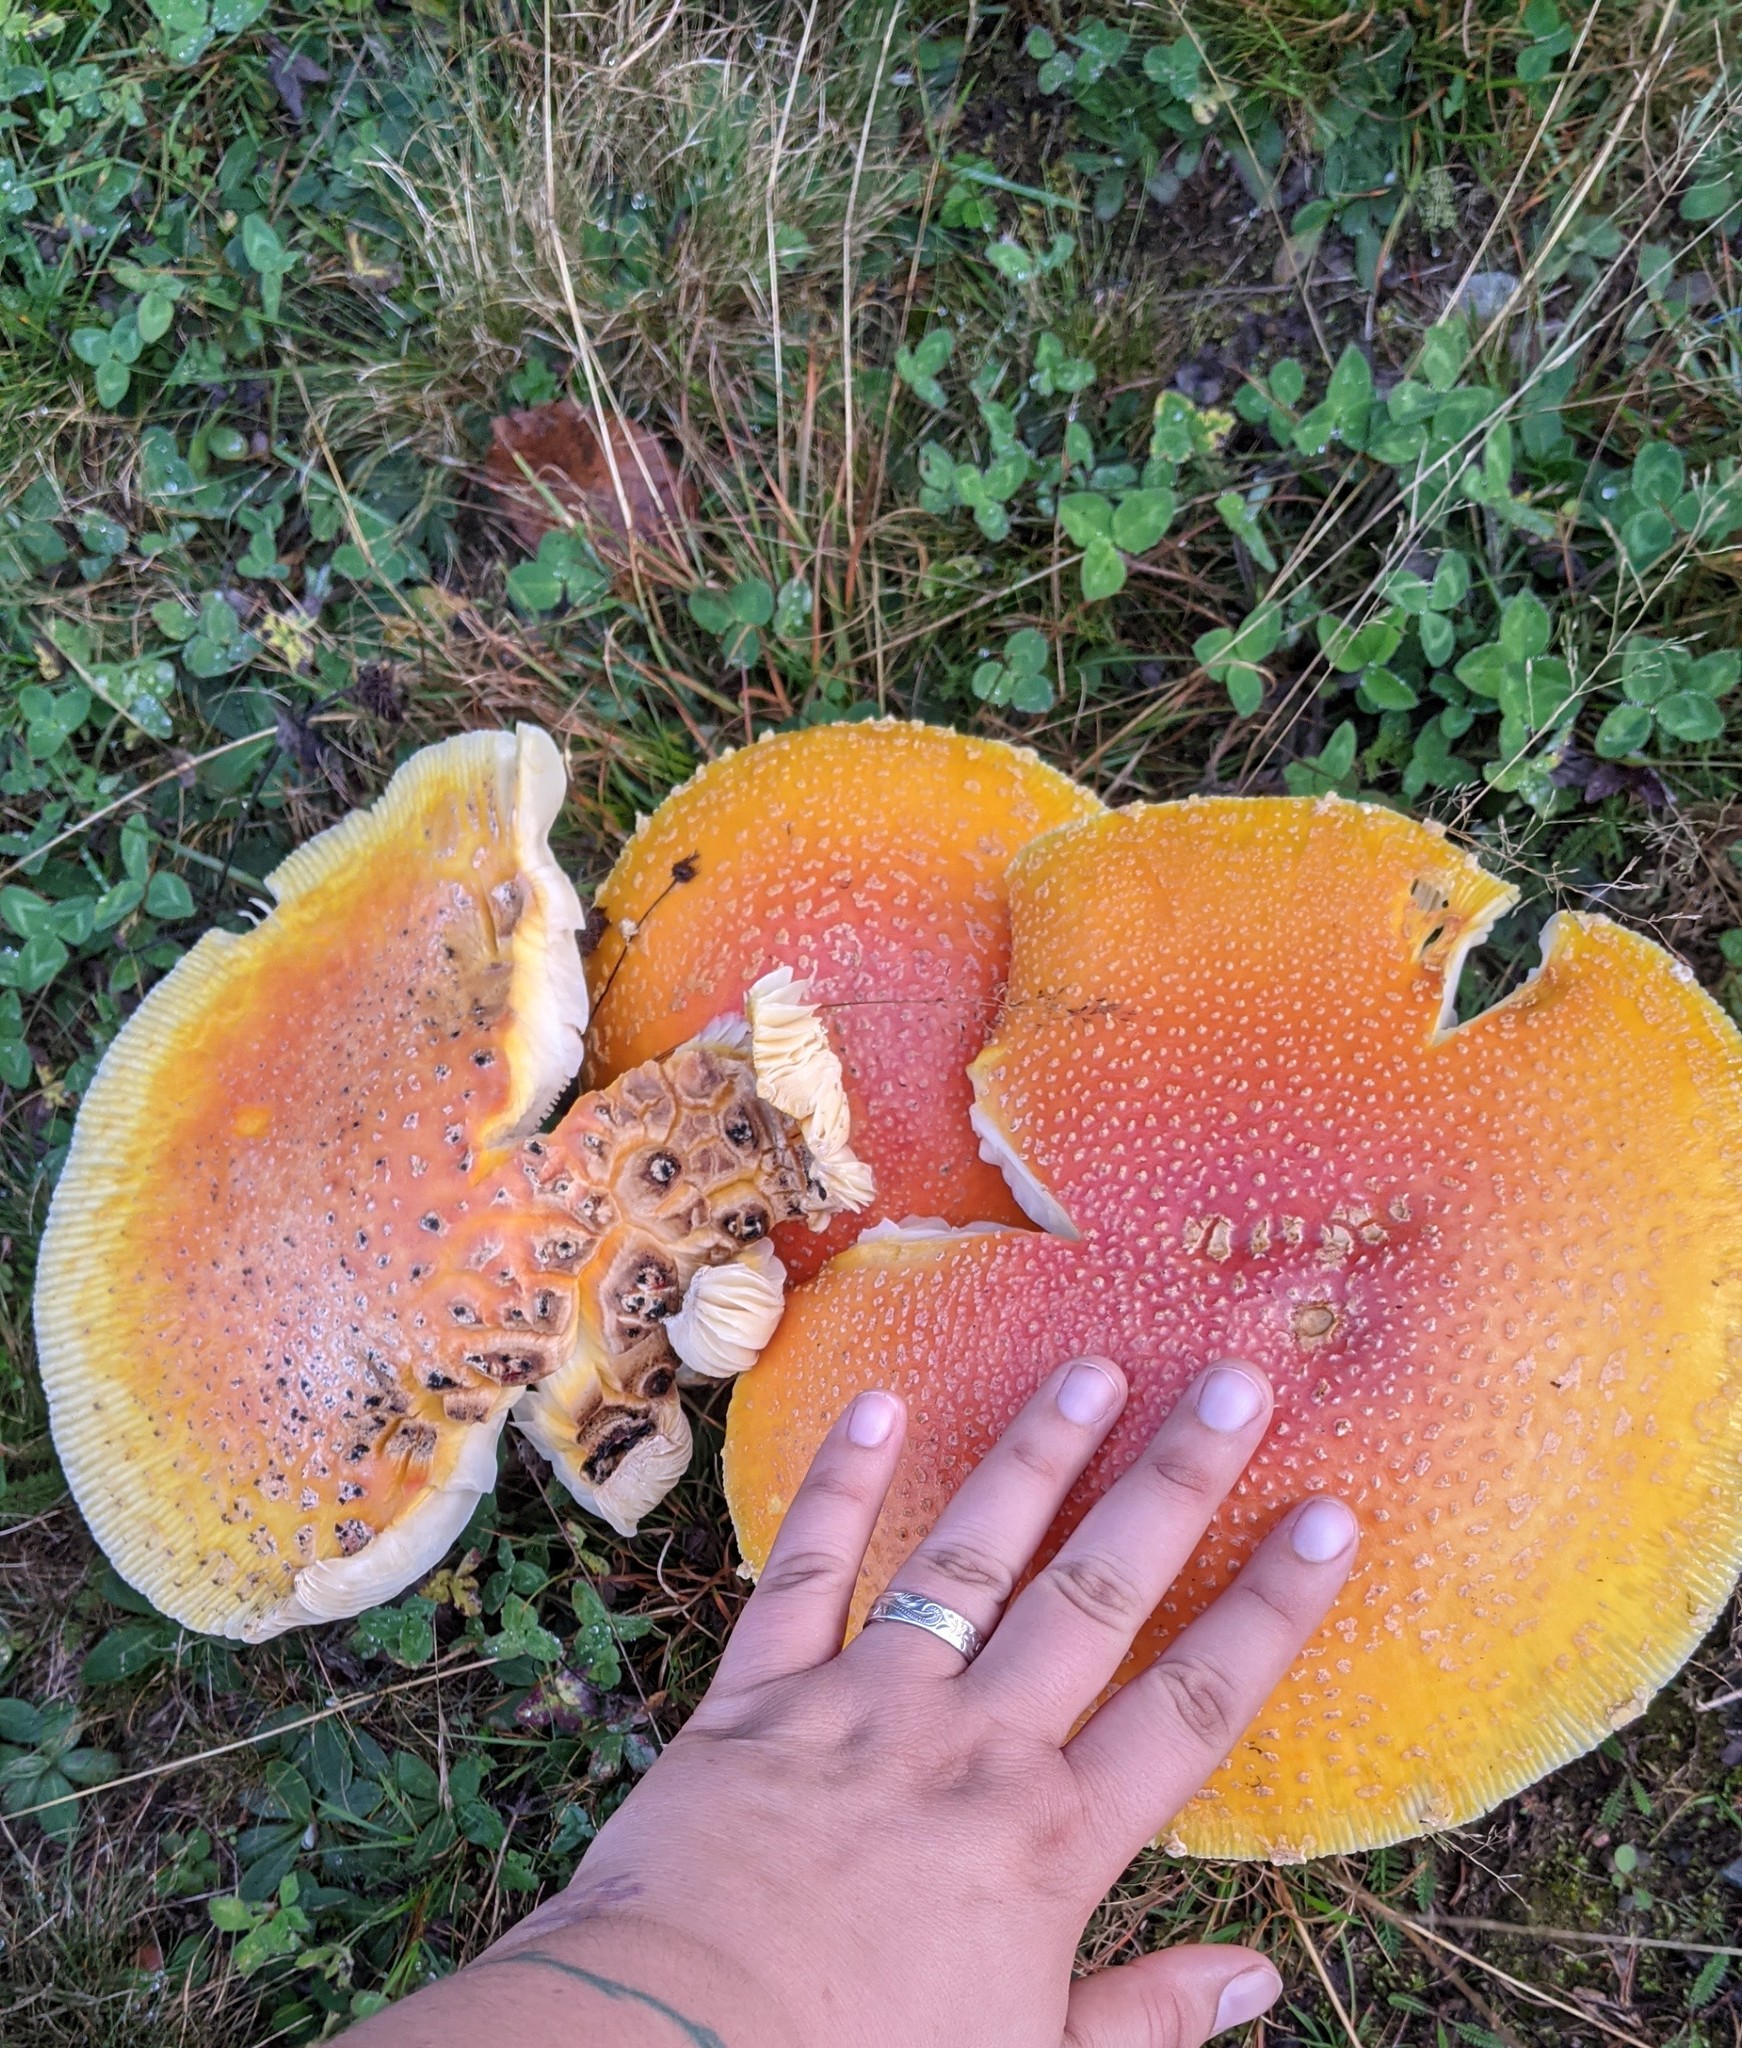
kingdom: Fungi
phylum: Basidiomycota
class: Agaricomycetes
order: Agaricales
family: Amanitaceae
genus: Amanita
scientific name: Amanita muscaria
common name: Fly agaric
